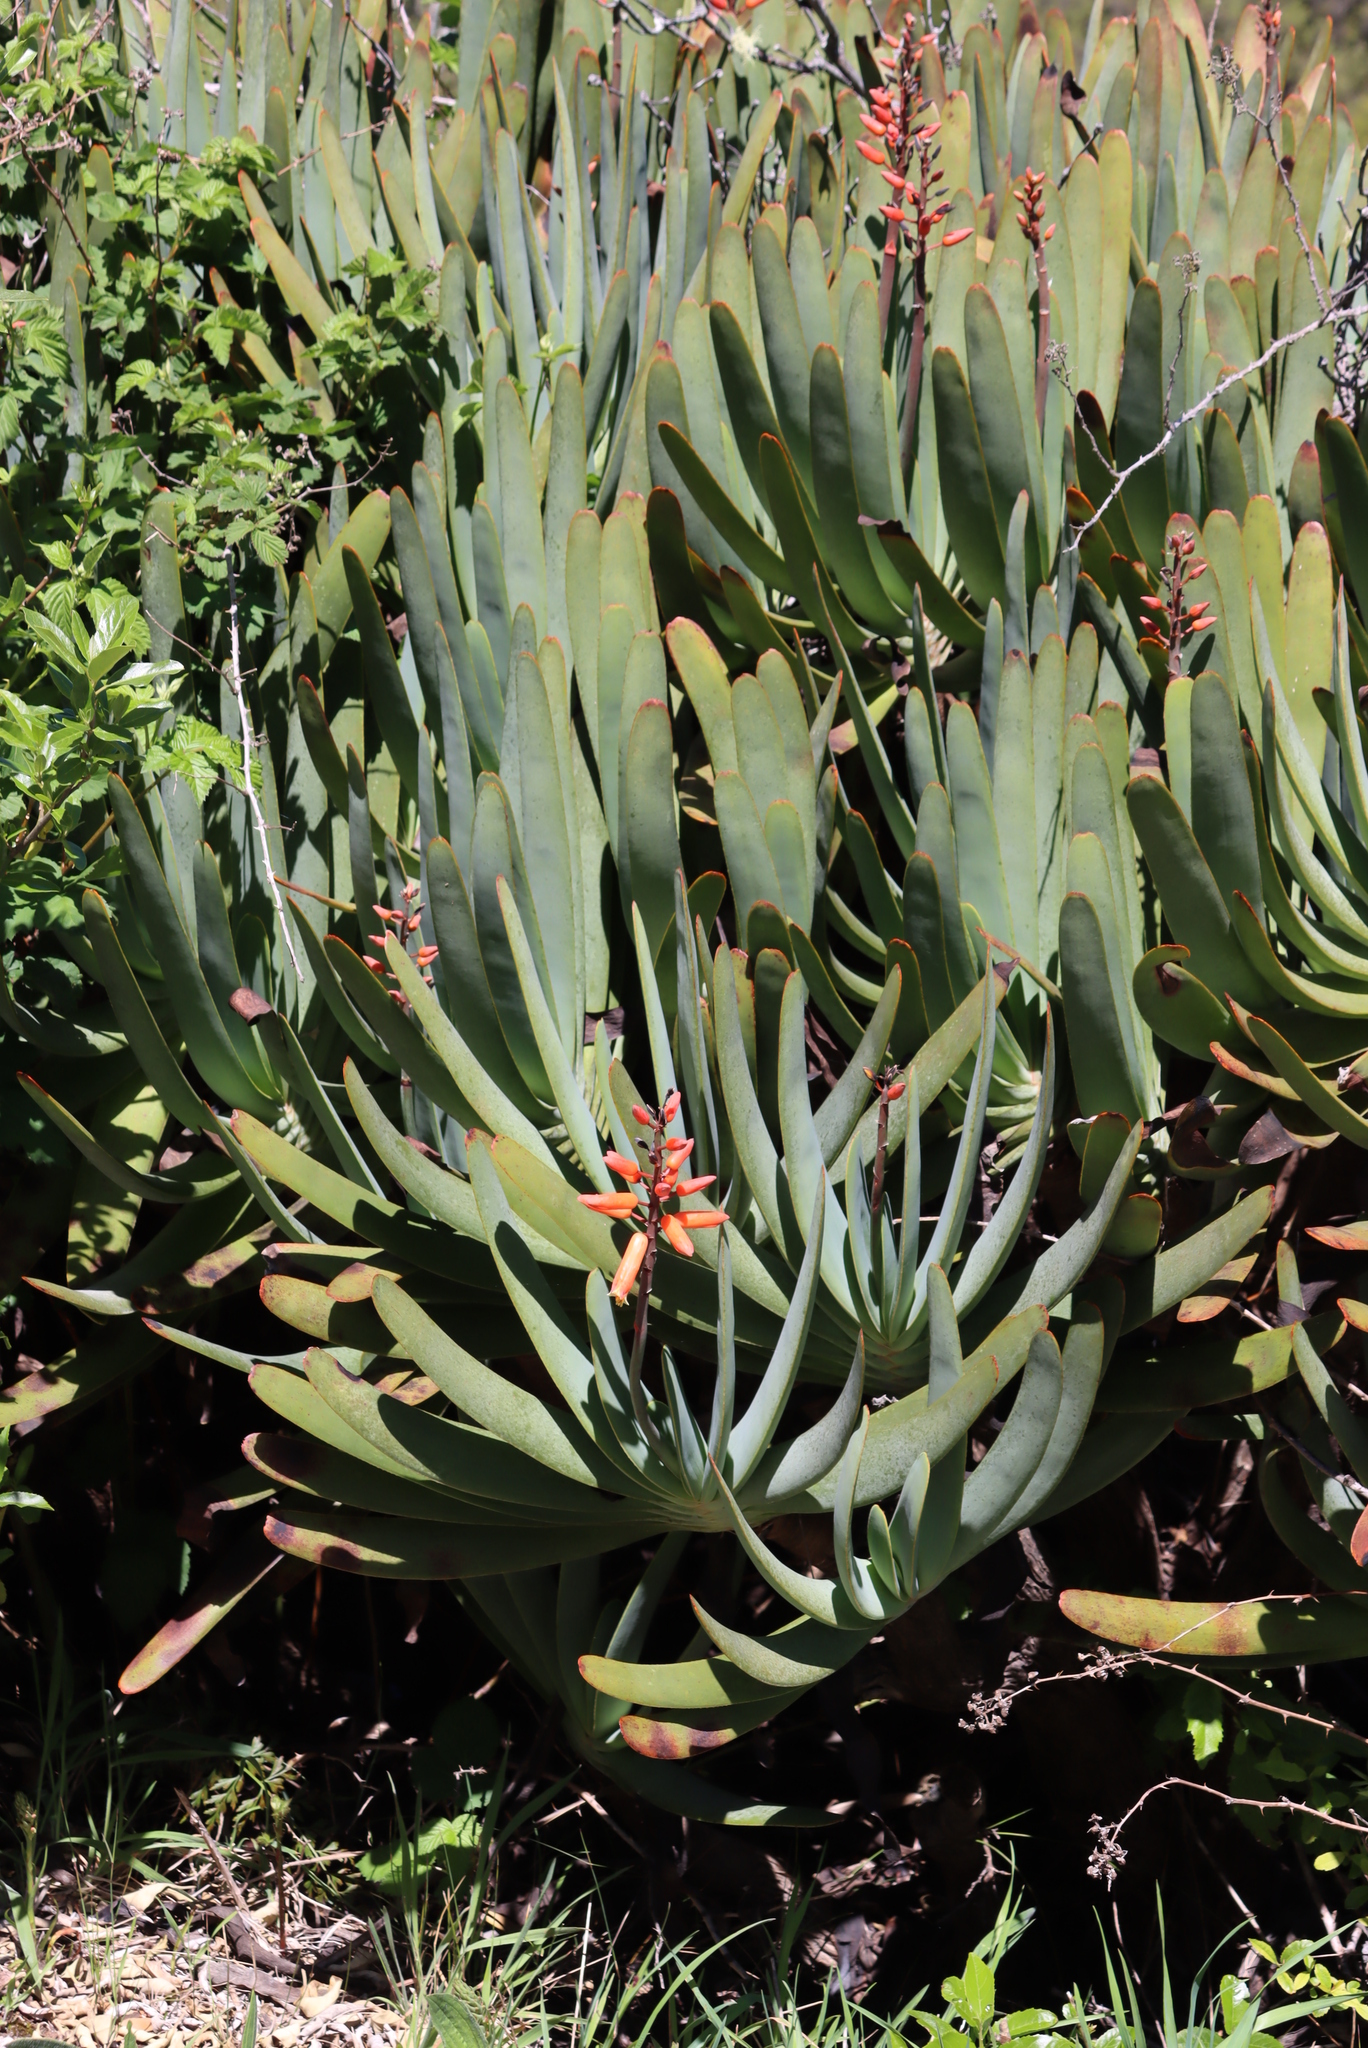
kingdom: Plantae
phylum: Tracheophyta
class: Liliopsida
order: Asparagales
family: Asphodelaceae
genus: Kumara
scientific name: Kumara plicatilis
